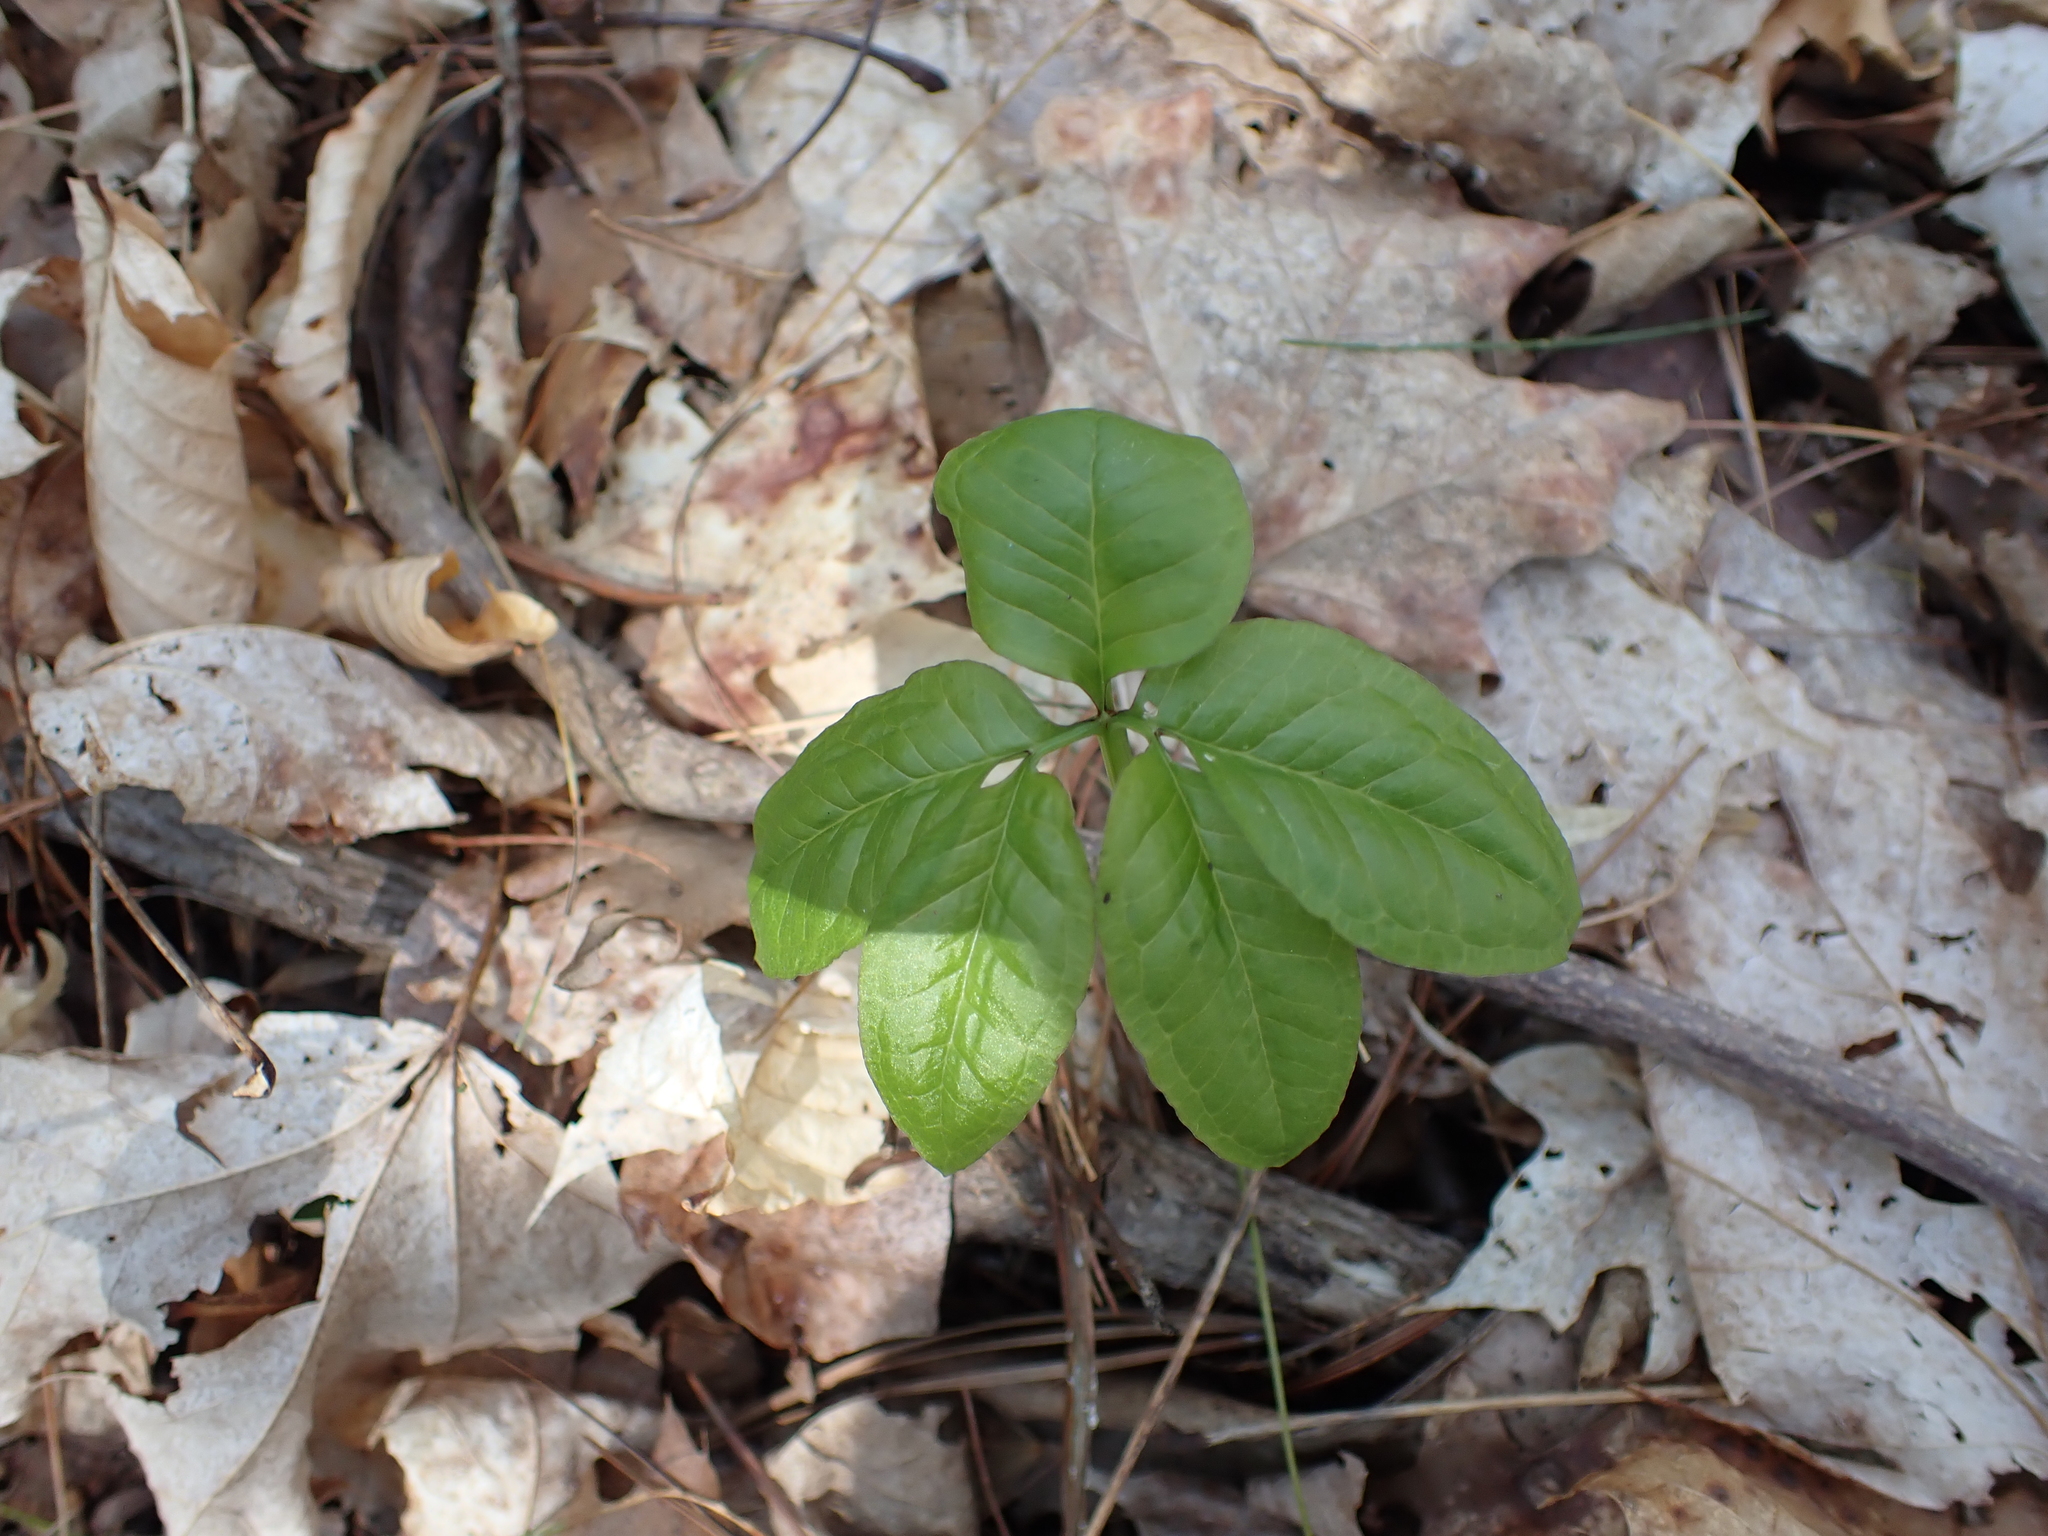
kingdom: Plantae
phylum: Tracheophyta
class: Liliopsida
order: Alismatales
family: Araceae
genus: Arisaema
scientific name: Arisaema dracontium
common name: Dragon-arum
